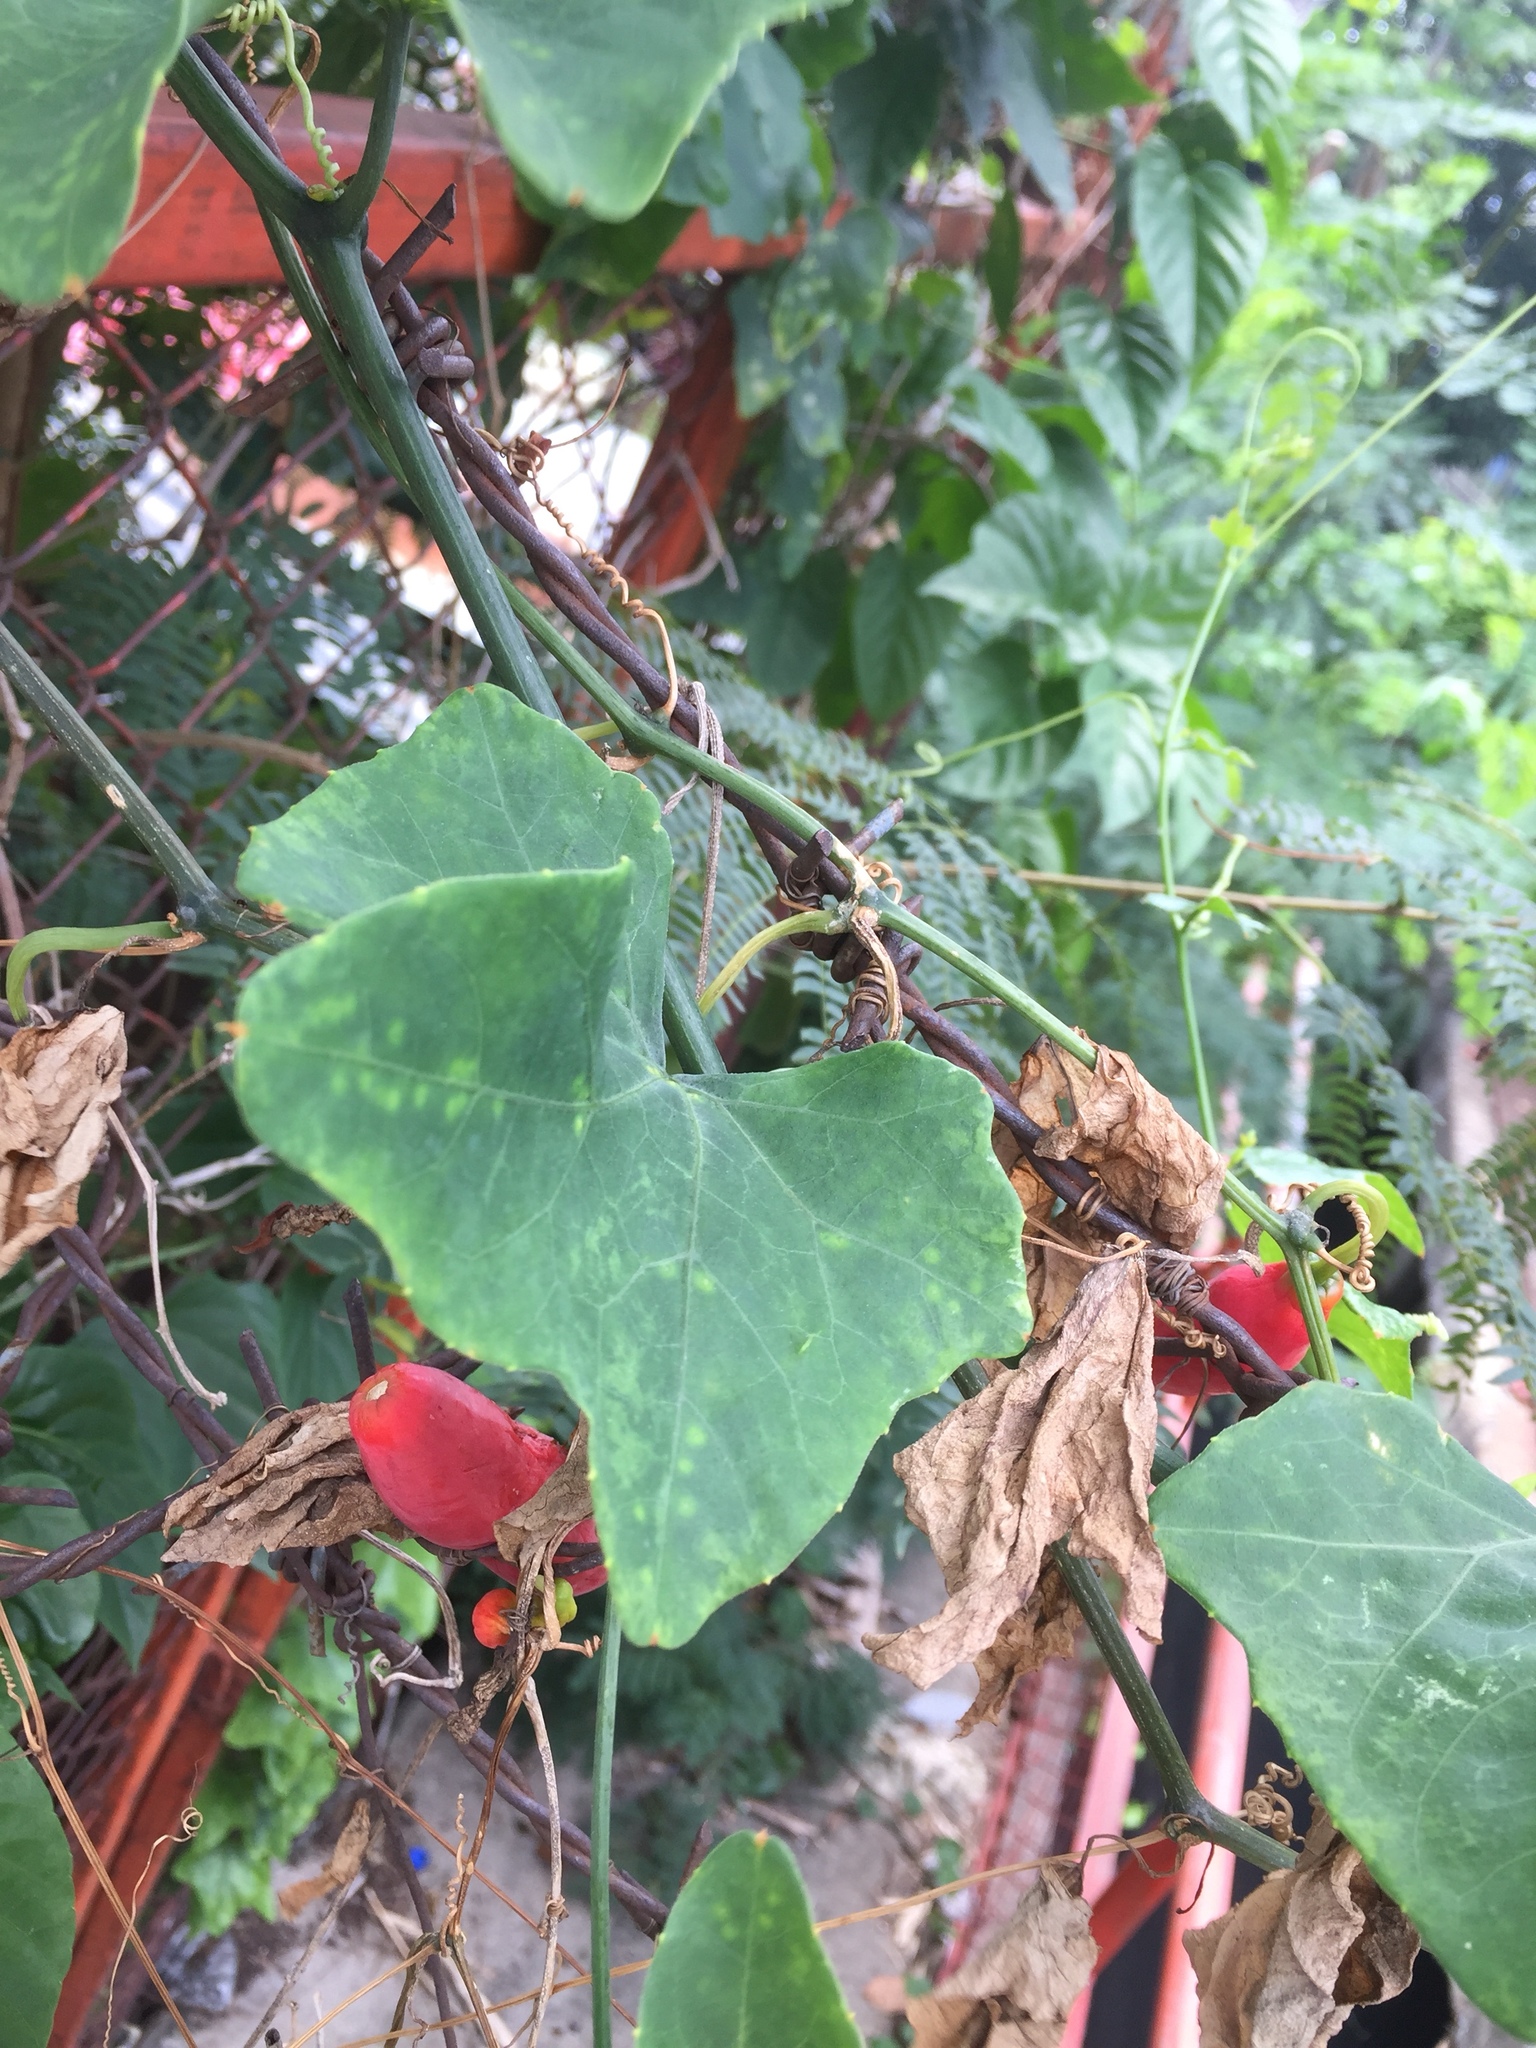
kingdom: Plantae
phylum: Tracheophyta
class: Magnoliopsida
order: Cucurbitales
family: Cucurbitaceae
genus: Coccinia
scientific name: Coccinia grandis
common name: Ivy gourd
